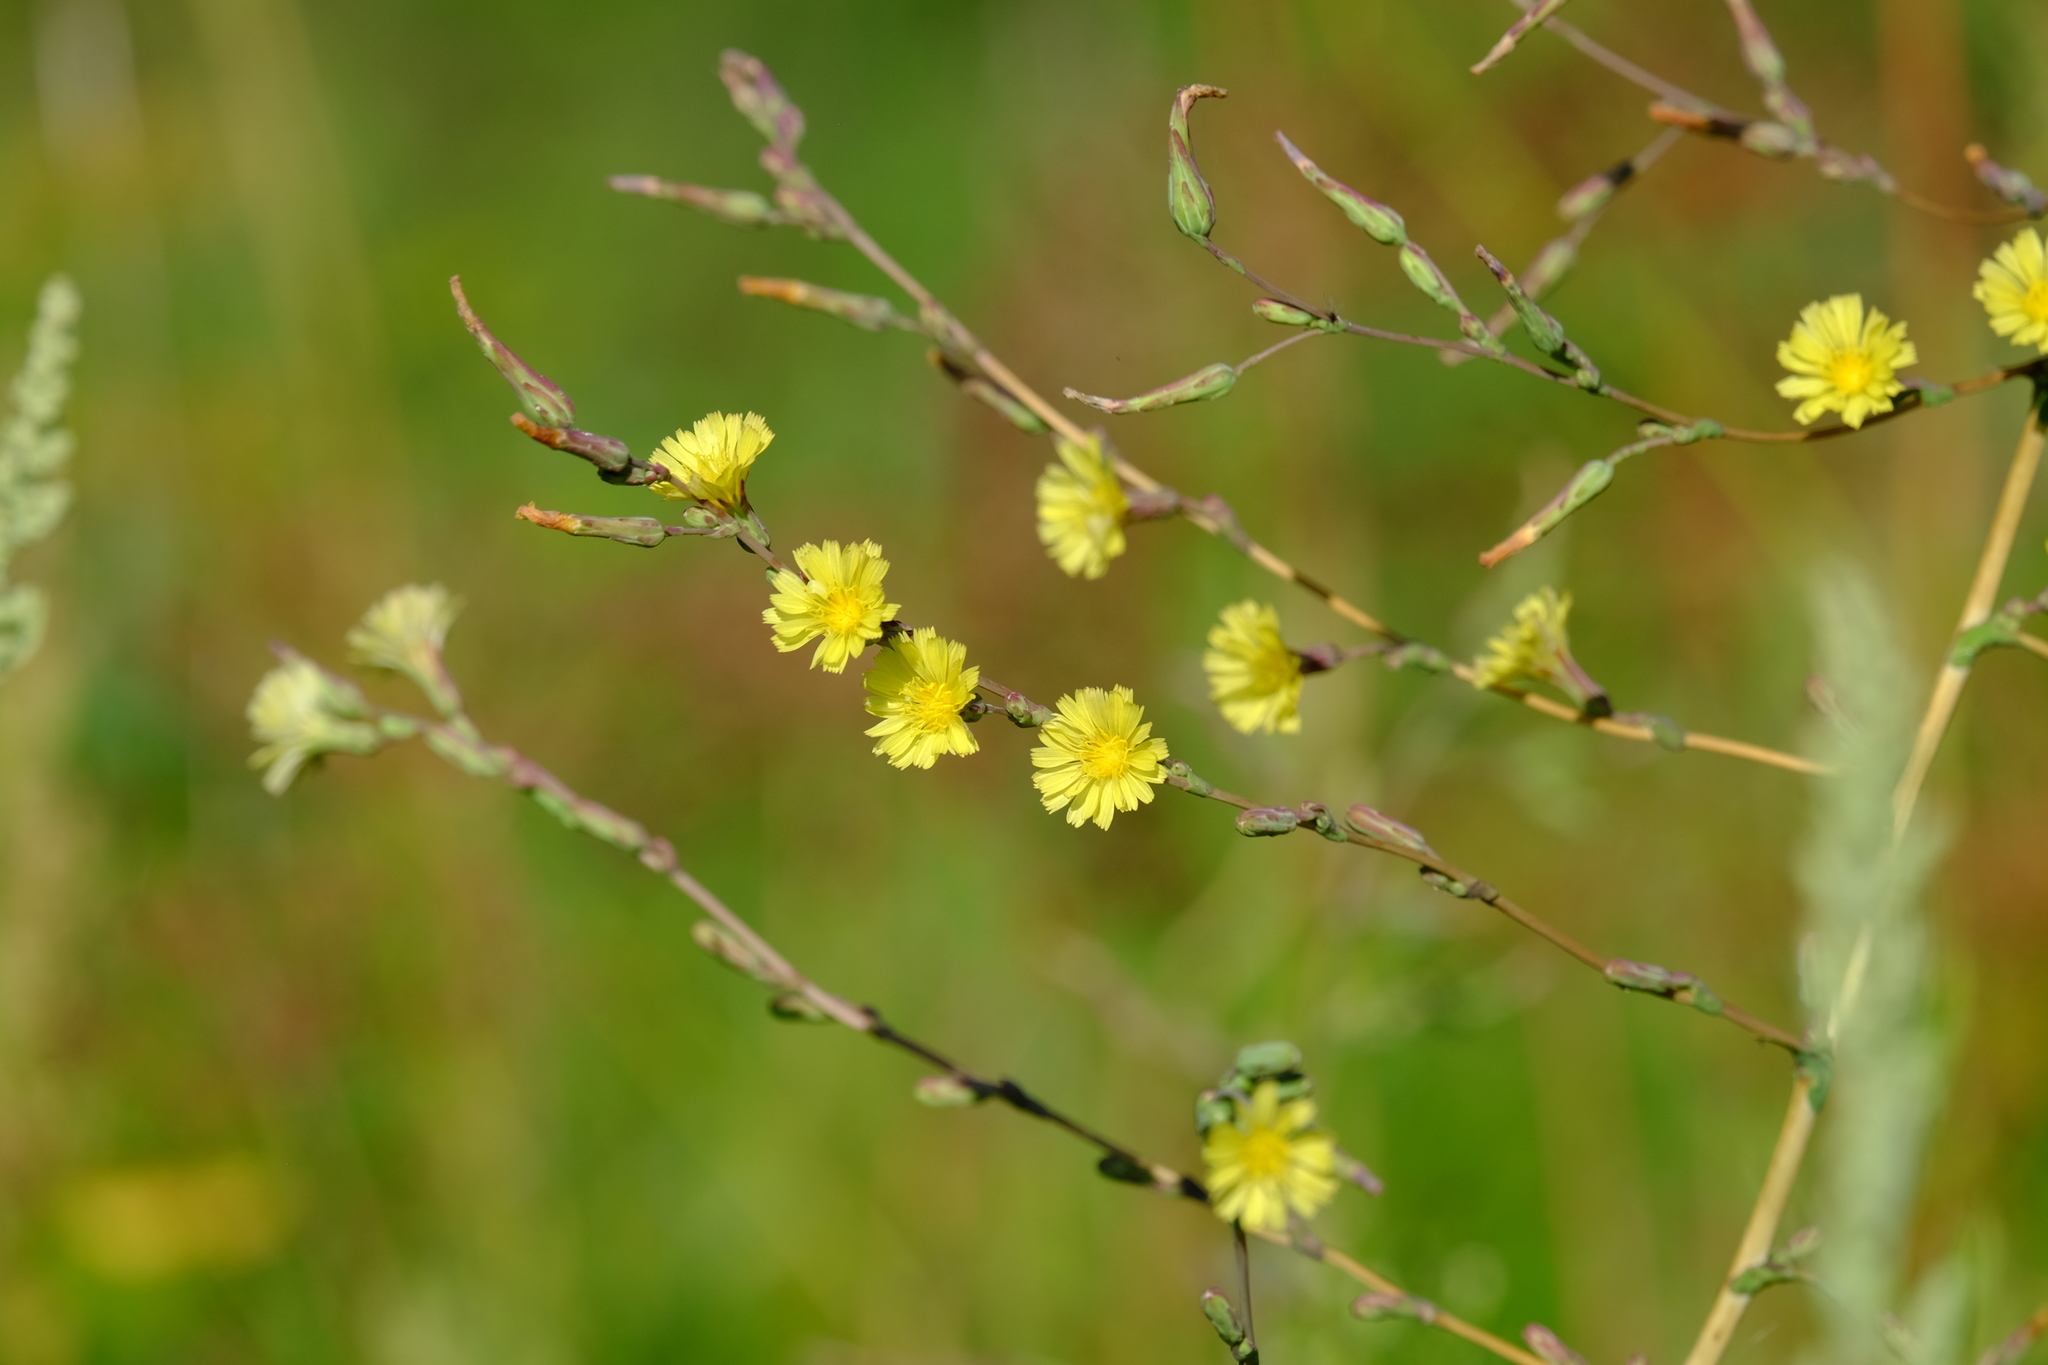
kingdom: Plantae
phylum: Tracheophyta
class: Magnoliopsida
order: Asterales
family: Asteraceae
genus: Lactuca
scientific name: Lactuca serriola
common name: Prickly lettuce
